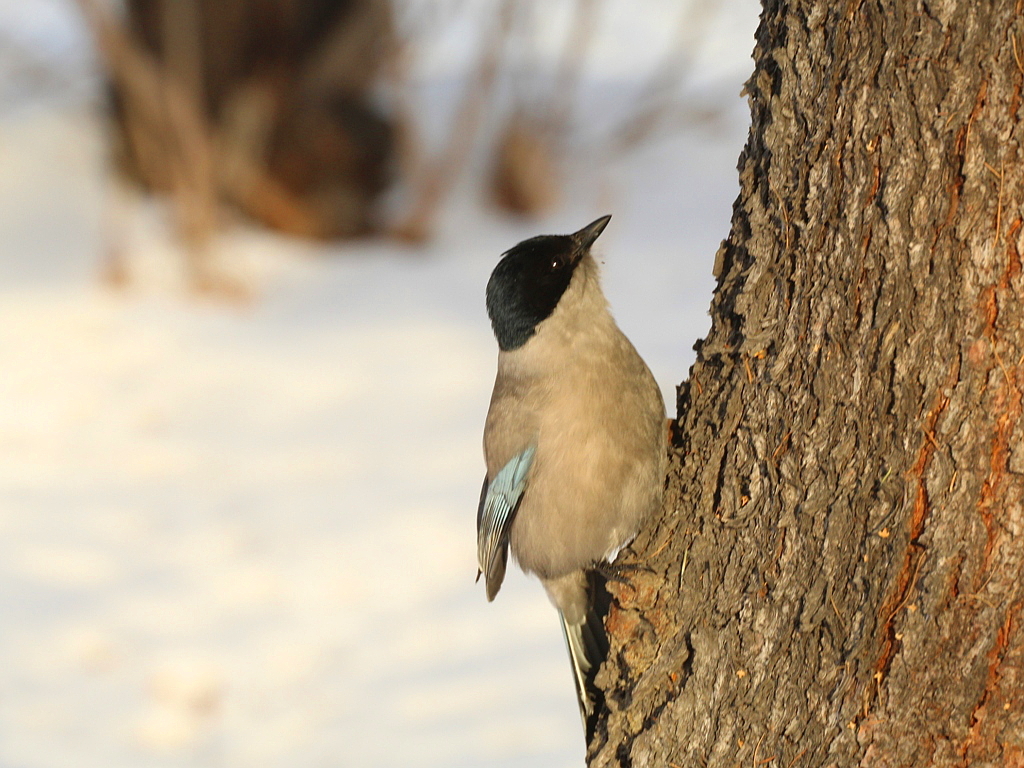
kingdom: Animalia
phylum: Chordata
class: Aves
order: Passeriformes
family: Corvidae
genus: Cyanopica
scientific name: Cyanopica cyanus
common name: Azure-winged magpie
